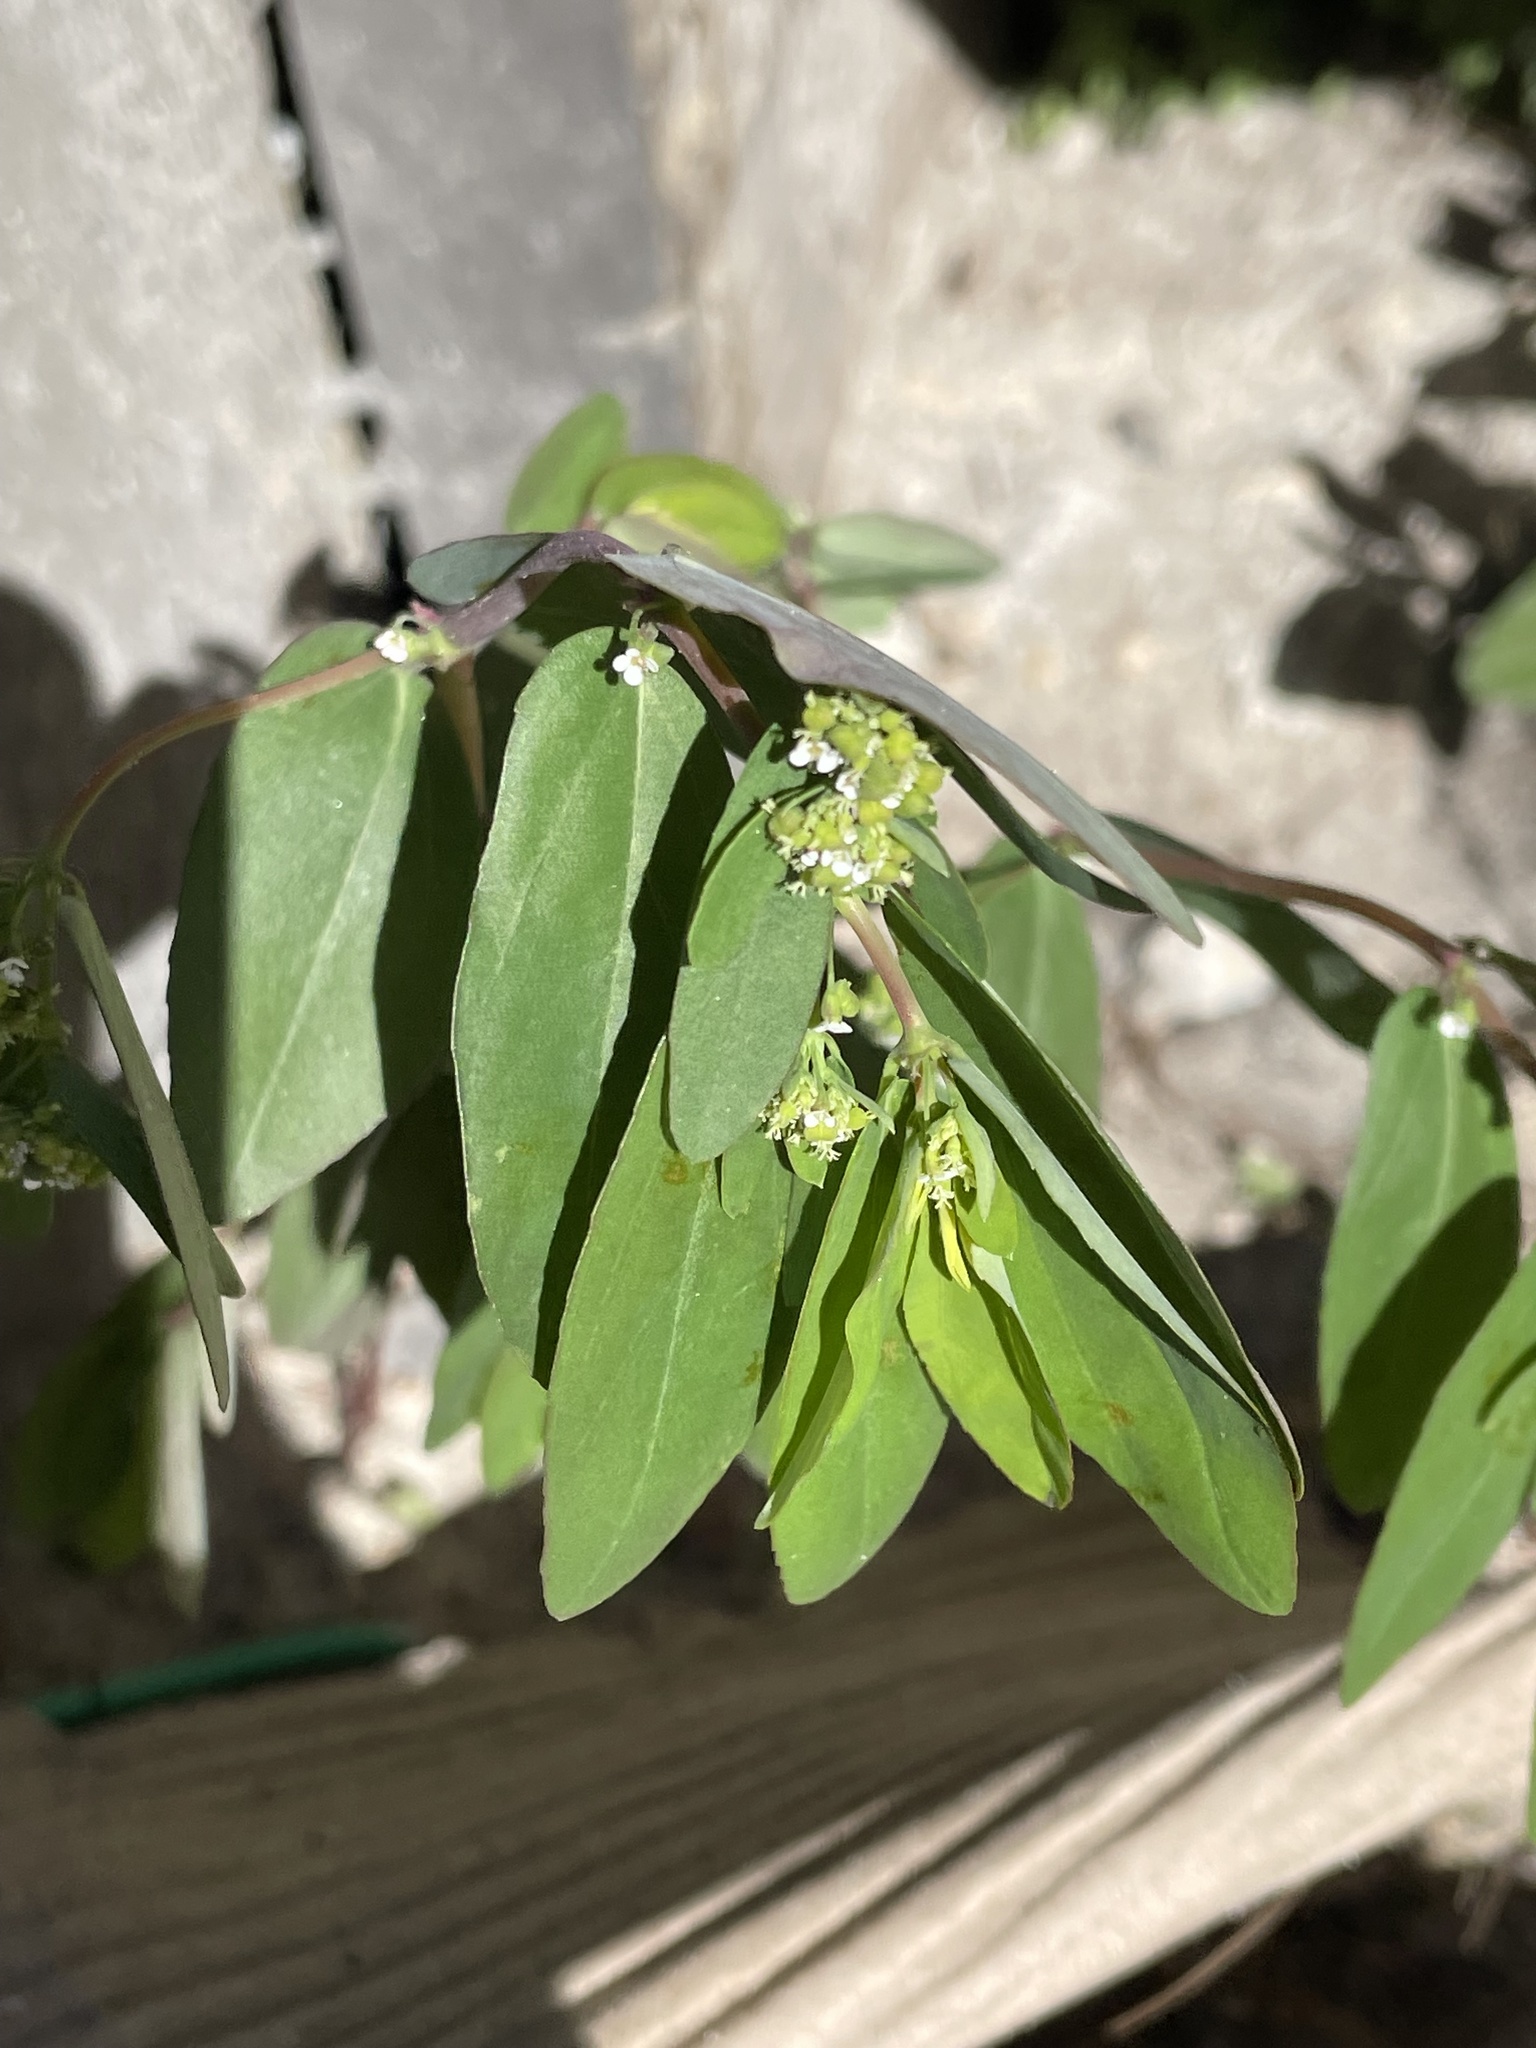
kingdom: Plantae
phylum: Tracheophyta
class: Magnoliopsida
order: Malpighiales
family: Euphorbiaceae
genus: Euphorbia
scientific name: Euphorbia hypericifolia
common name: Graceful sandmat
